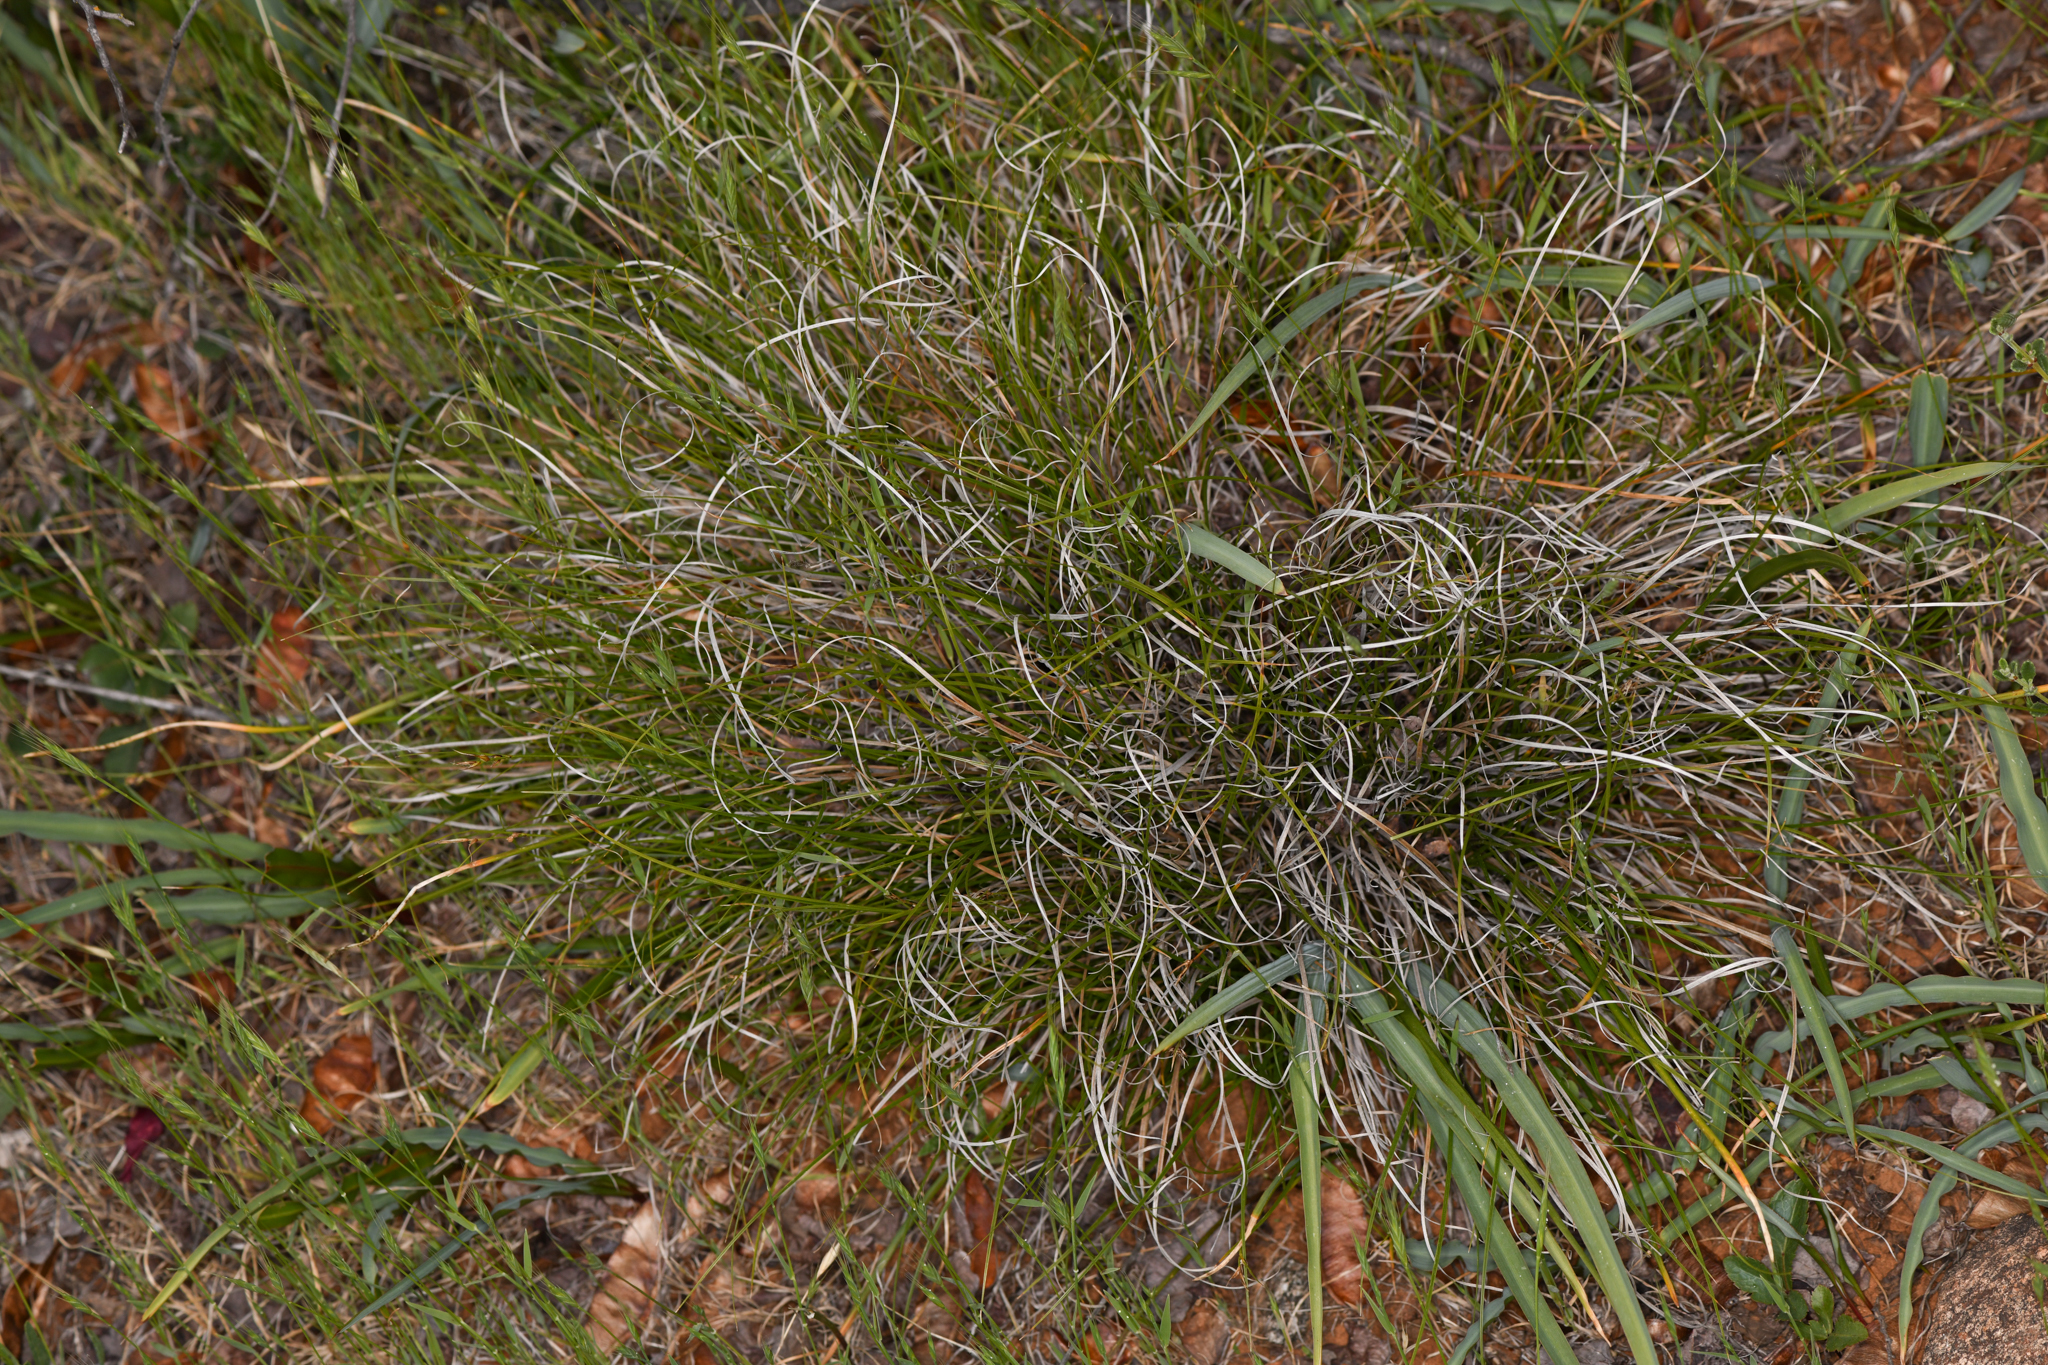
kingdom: Plantae
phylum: Tracheophyta
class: Liliopsida
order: Poales
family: Cyperaceae
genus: Carex
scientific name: Carex xerophila
